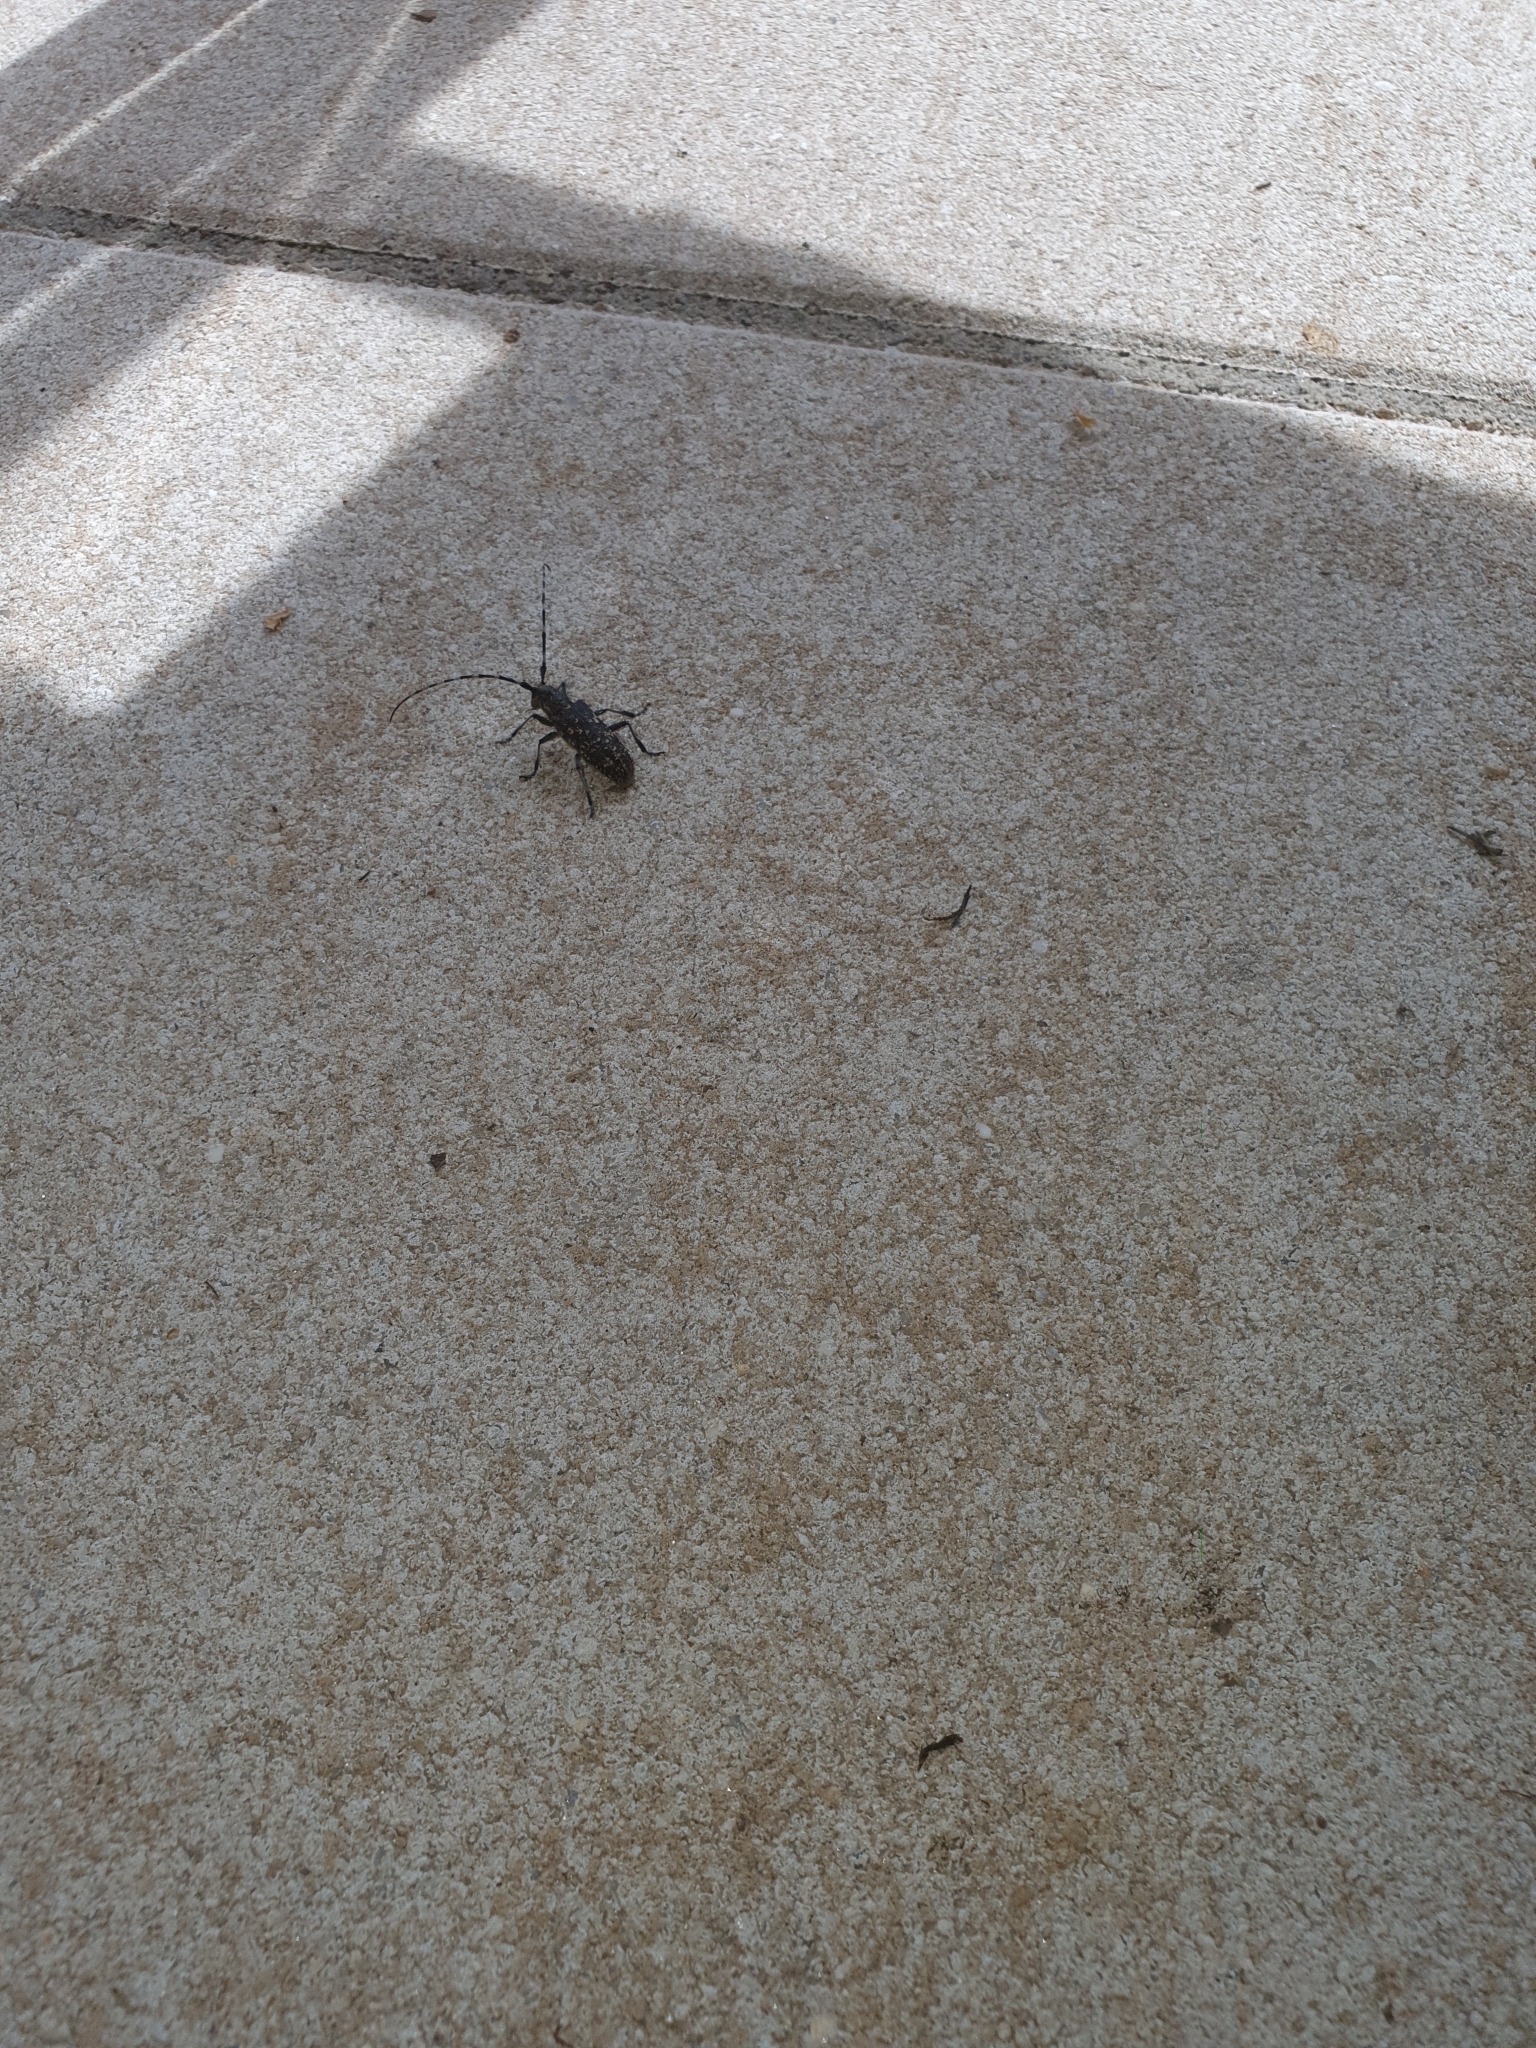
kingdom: Animalia
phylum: Arthropoda
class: Insecta
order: Coleoptera
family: Cerambycidae
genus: Monochamus
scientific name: Monochamus sutor
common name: Pine sawyer
